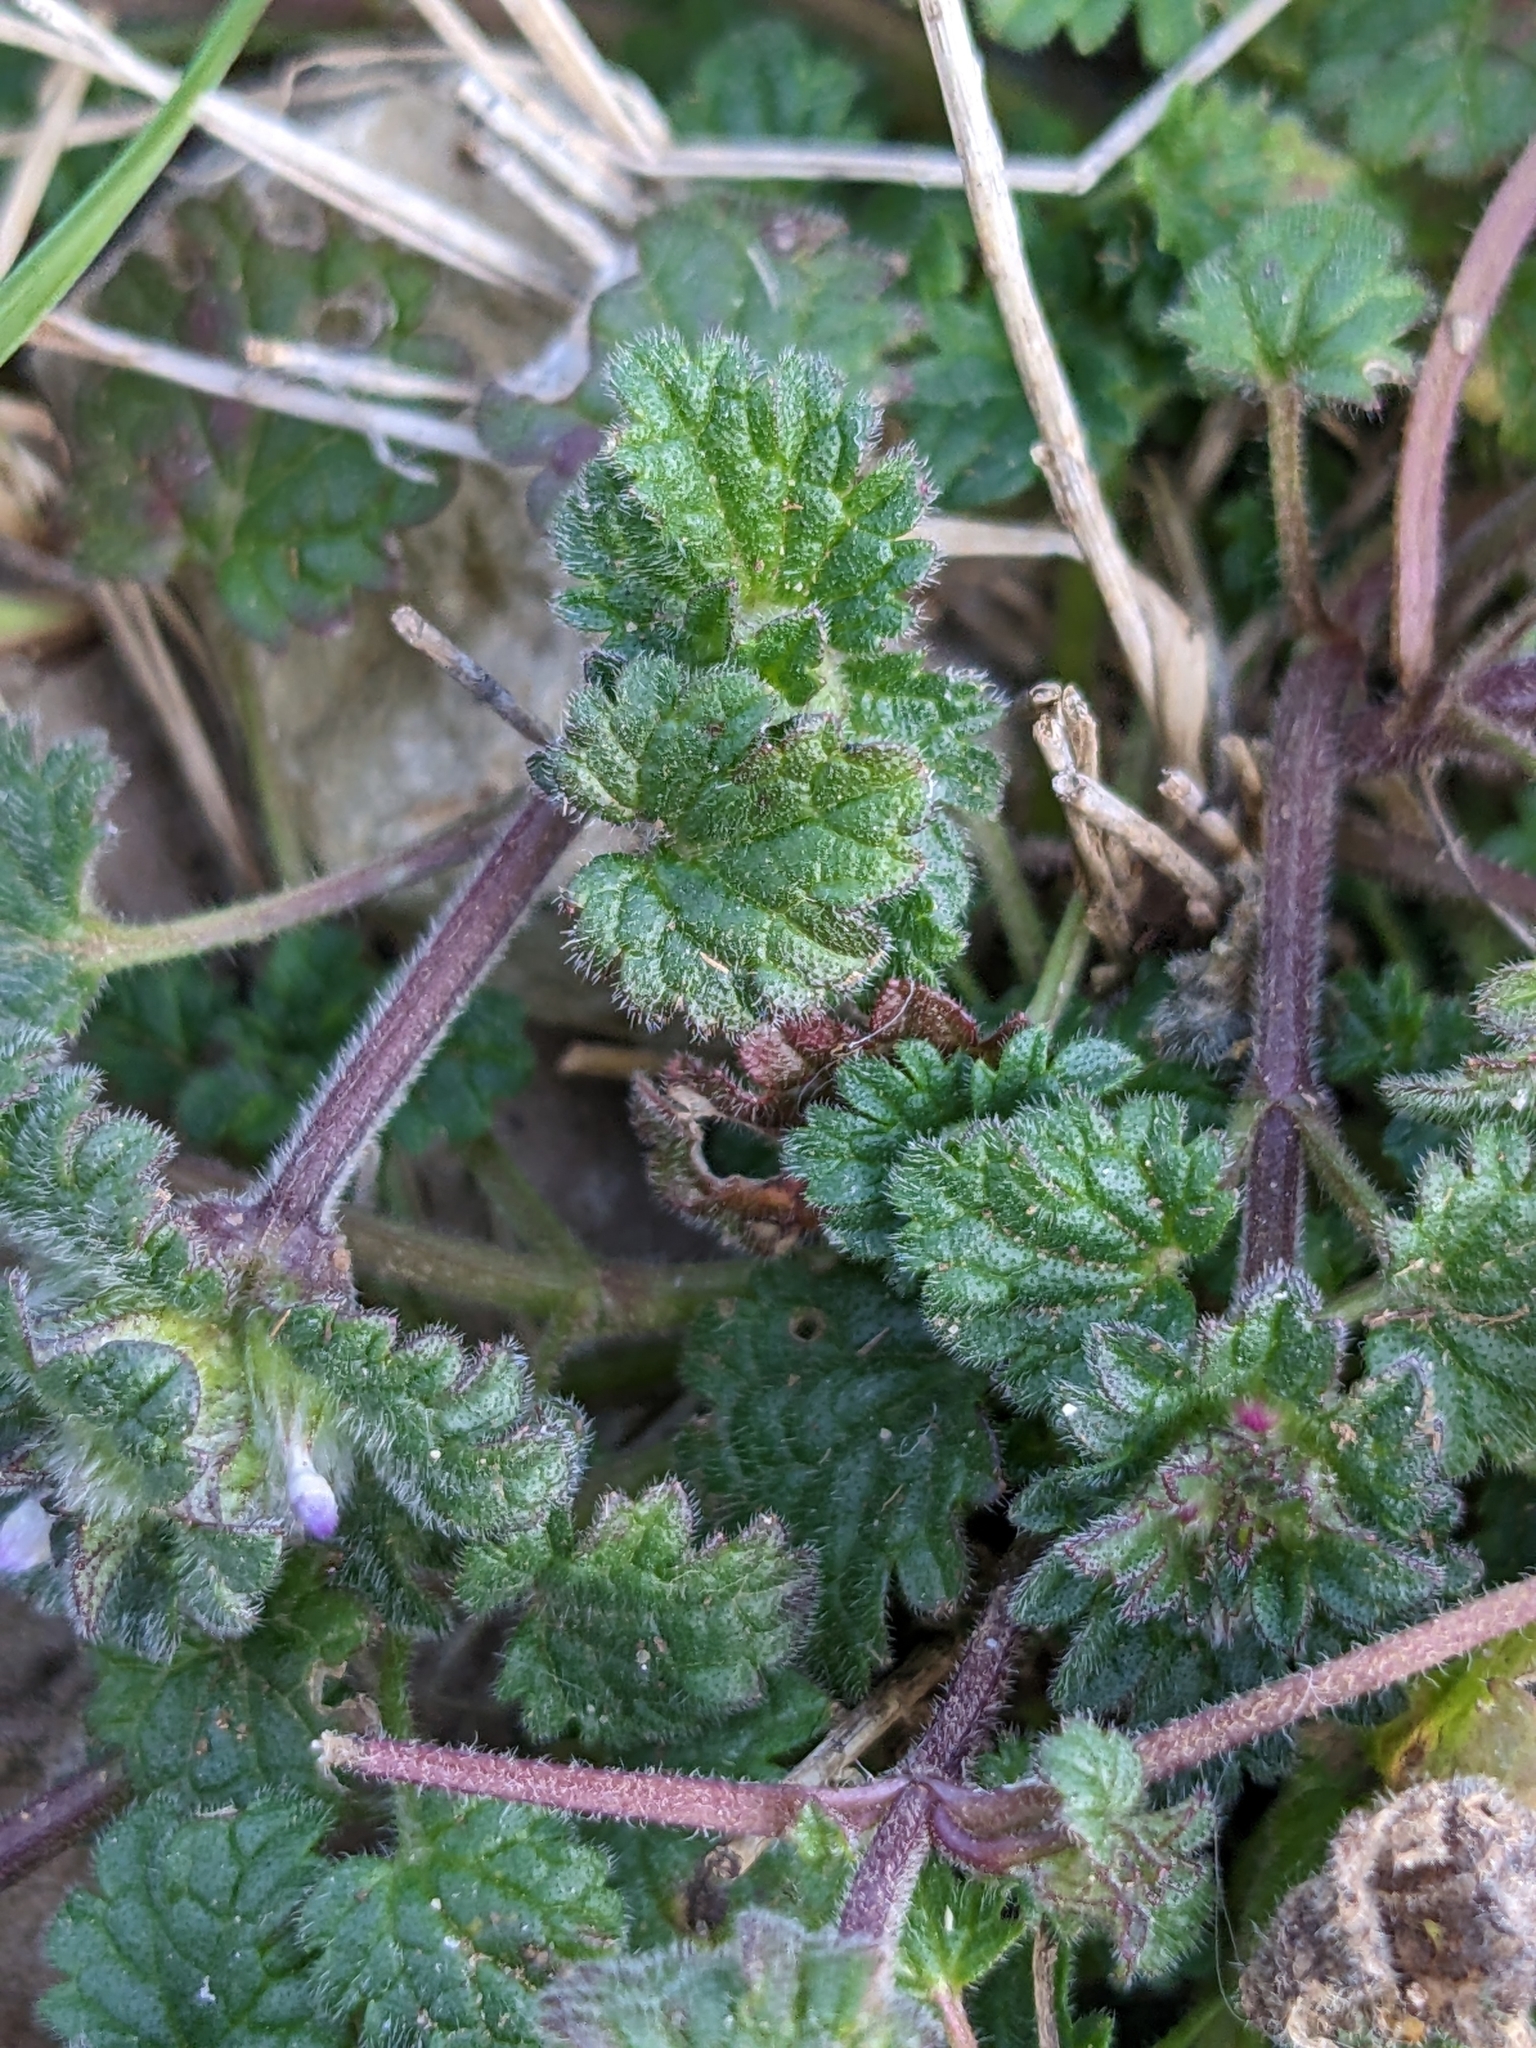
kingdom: Plantae
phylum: Tracheophyta
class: Magnoliopsida
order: Lamiales
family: Lamiaceae
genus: Lamium
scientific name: Lamium amplexicaule
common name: Henbit dead-nettle
